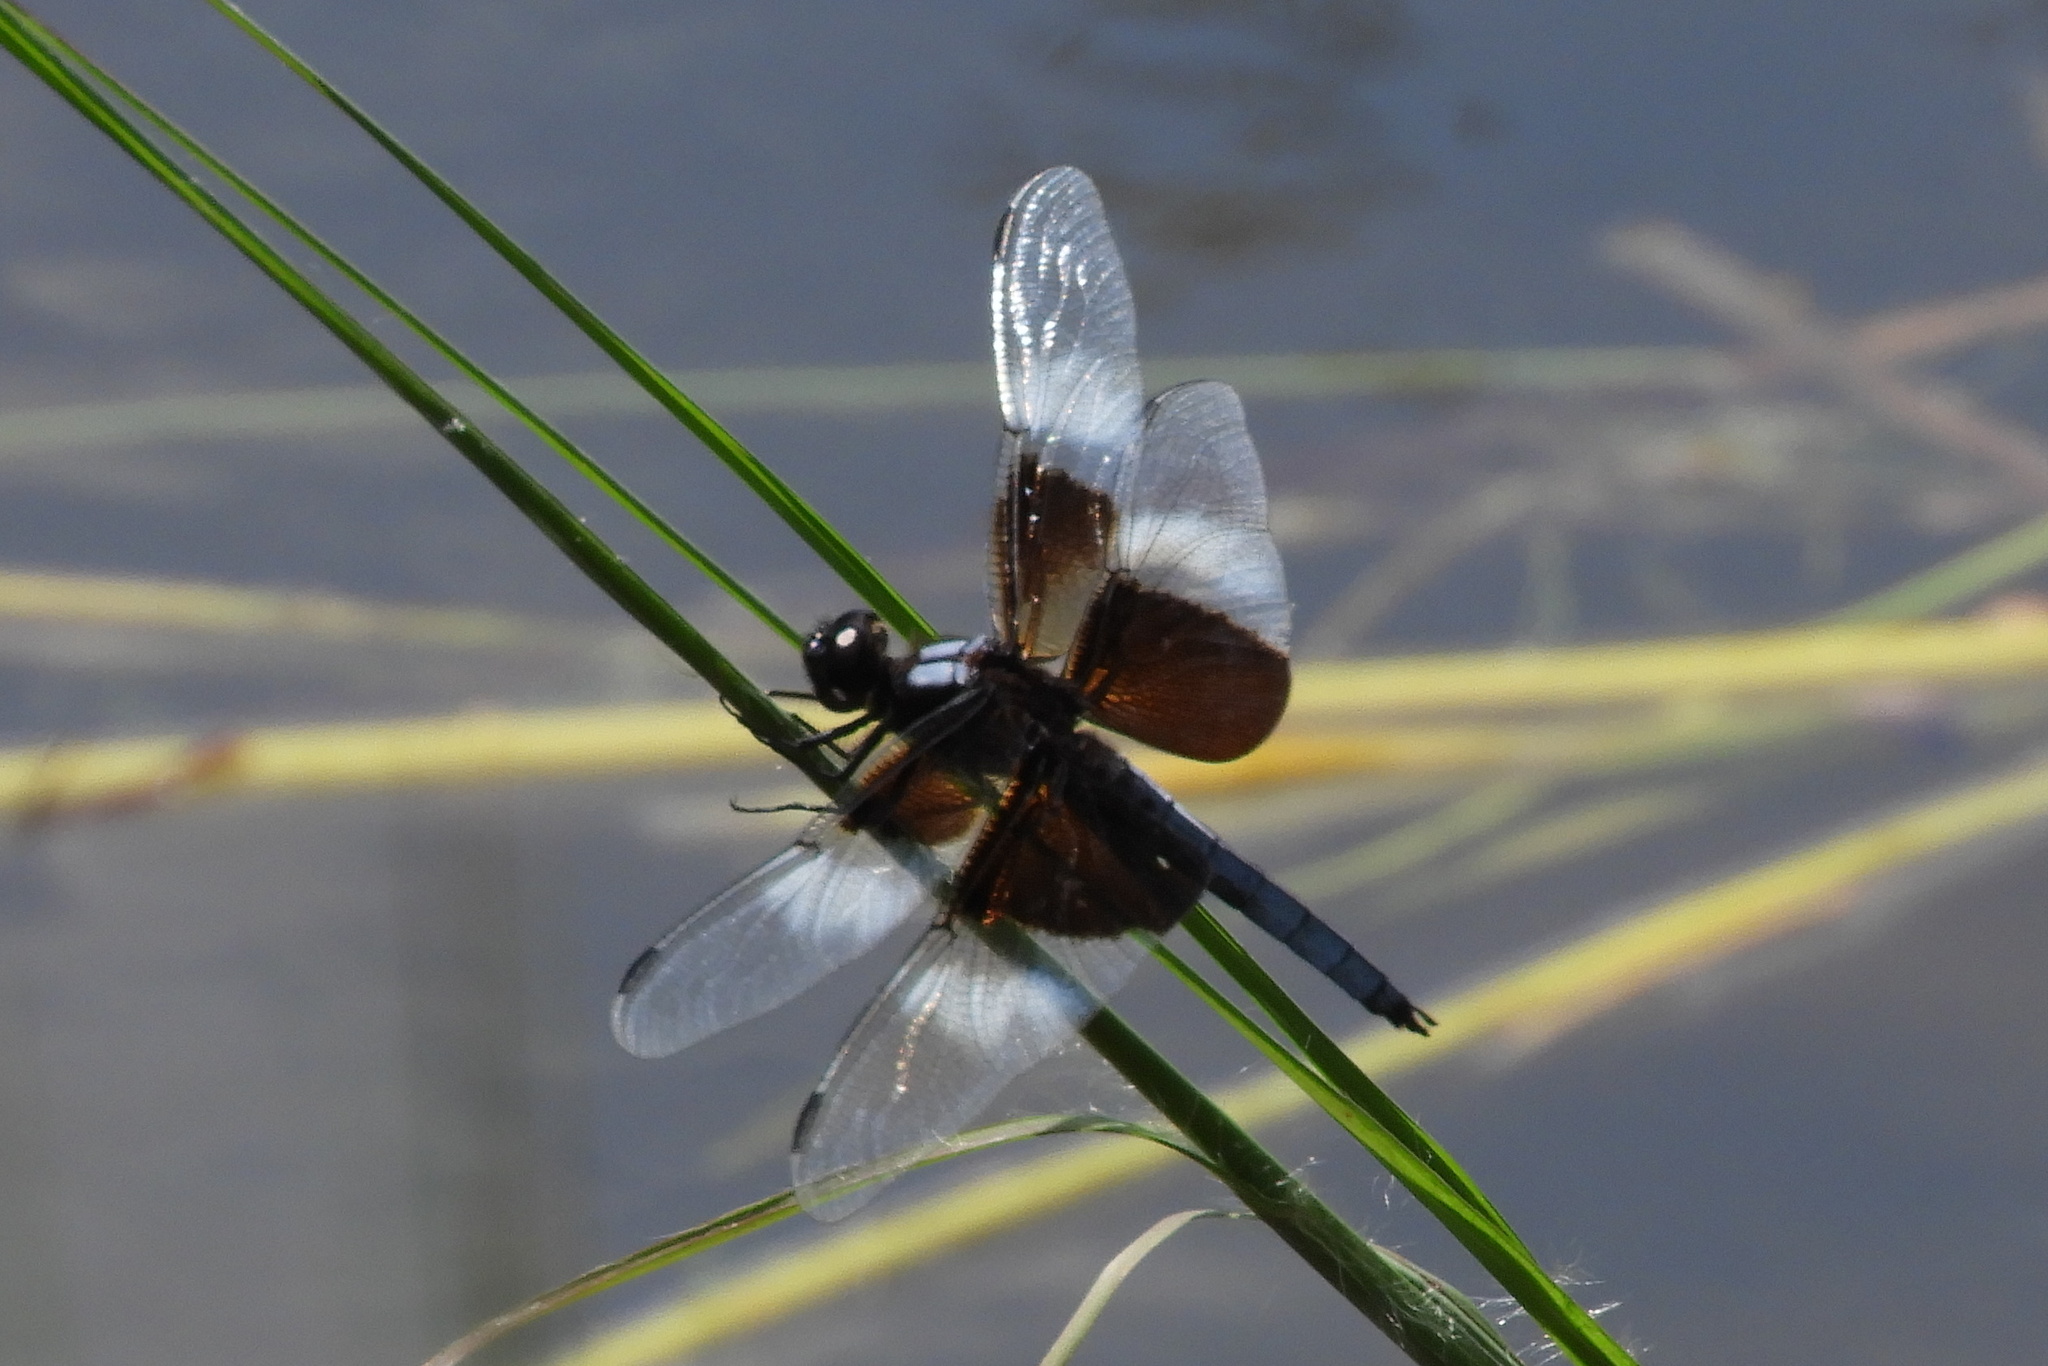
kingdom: Animalia
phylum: Arthropoda
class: Insecta
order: Odonata
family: Libellulidae
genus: Libellula
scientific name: Libellula luctuosa
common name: Widow skimmer
